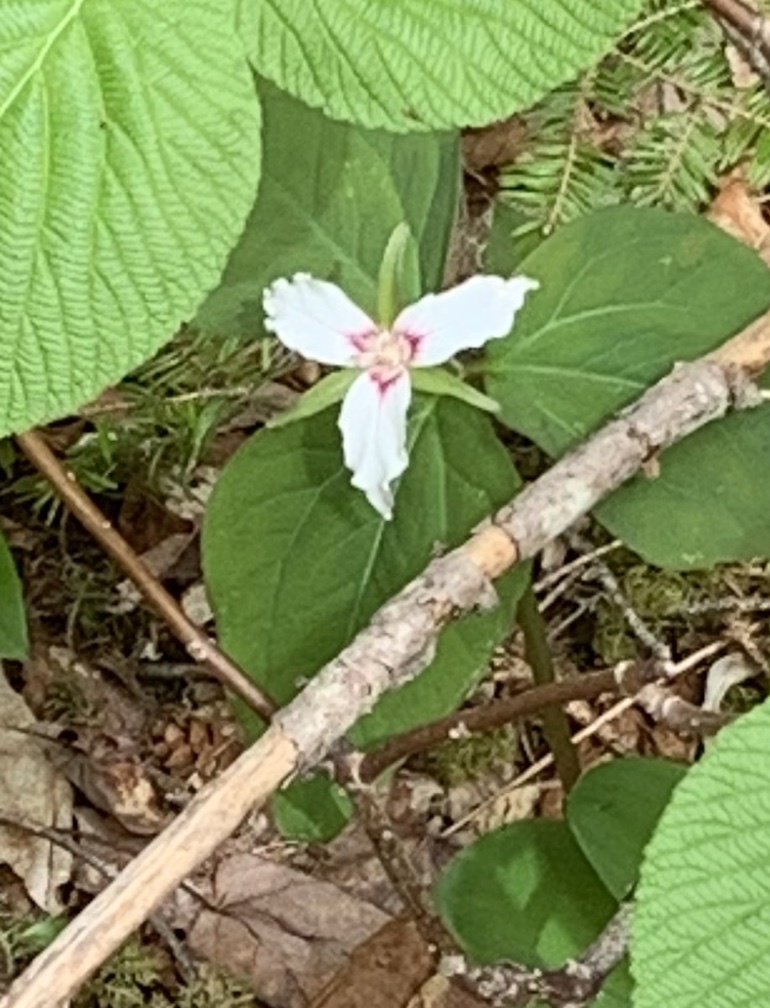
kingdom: Plantae
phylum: Tracheophyta
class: Liliopsida
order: Liliales
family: Melanthiaceae
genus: Trillium
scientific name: Trillium undulatum
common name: Paint trillium
